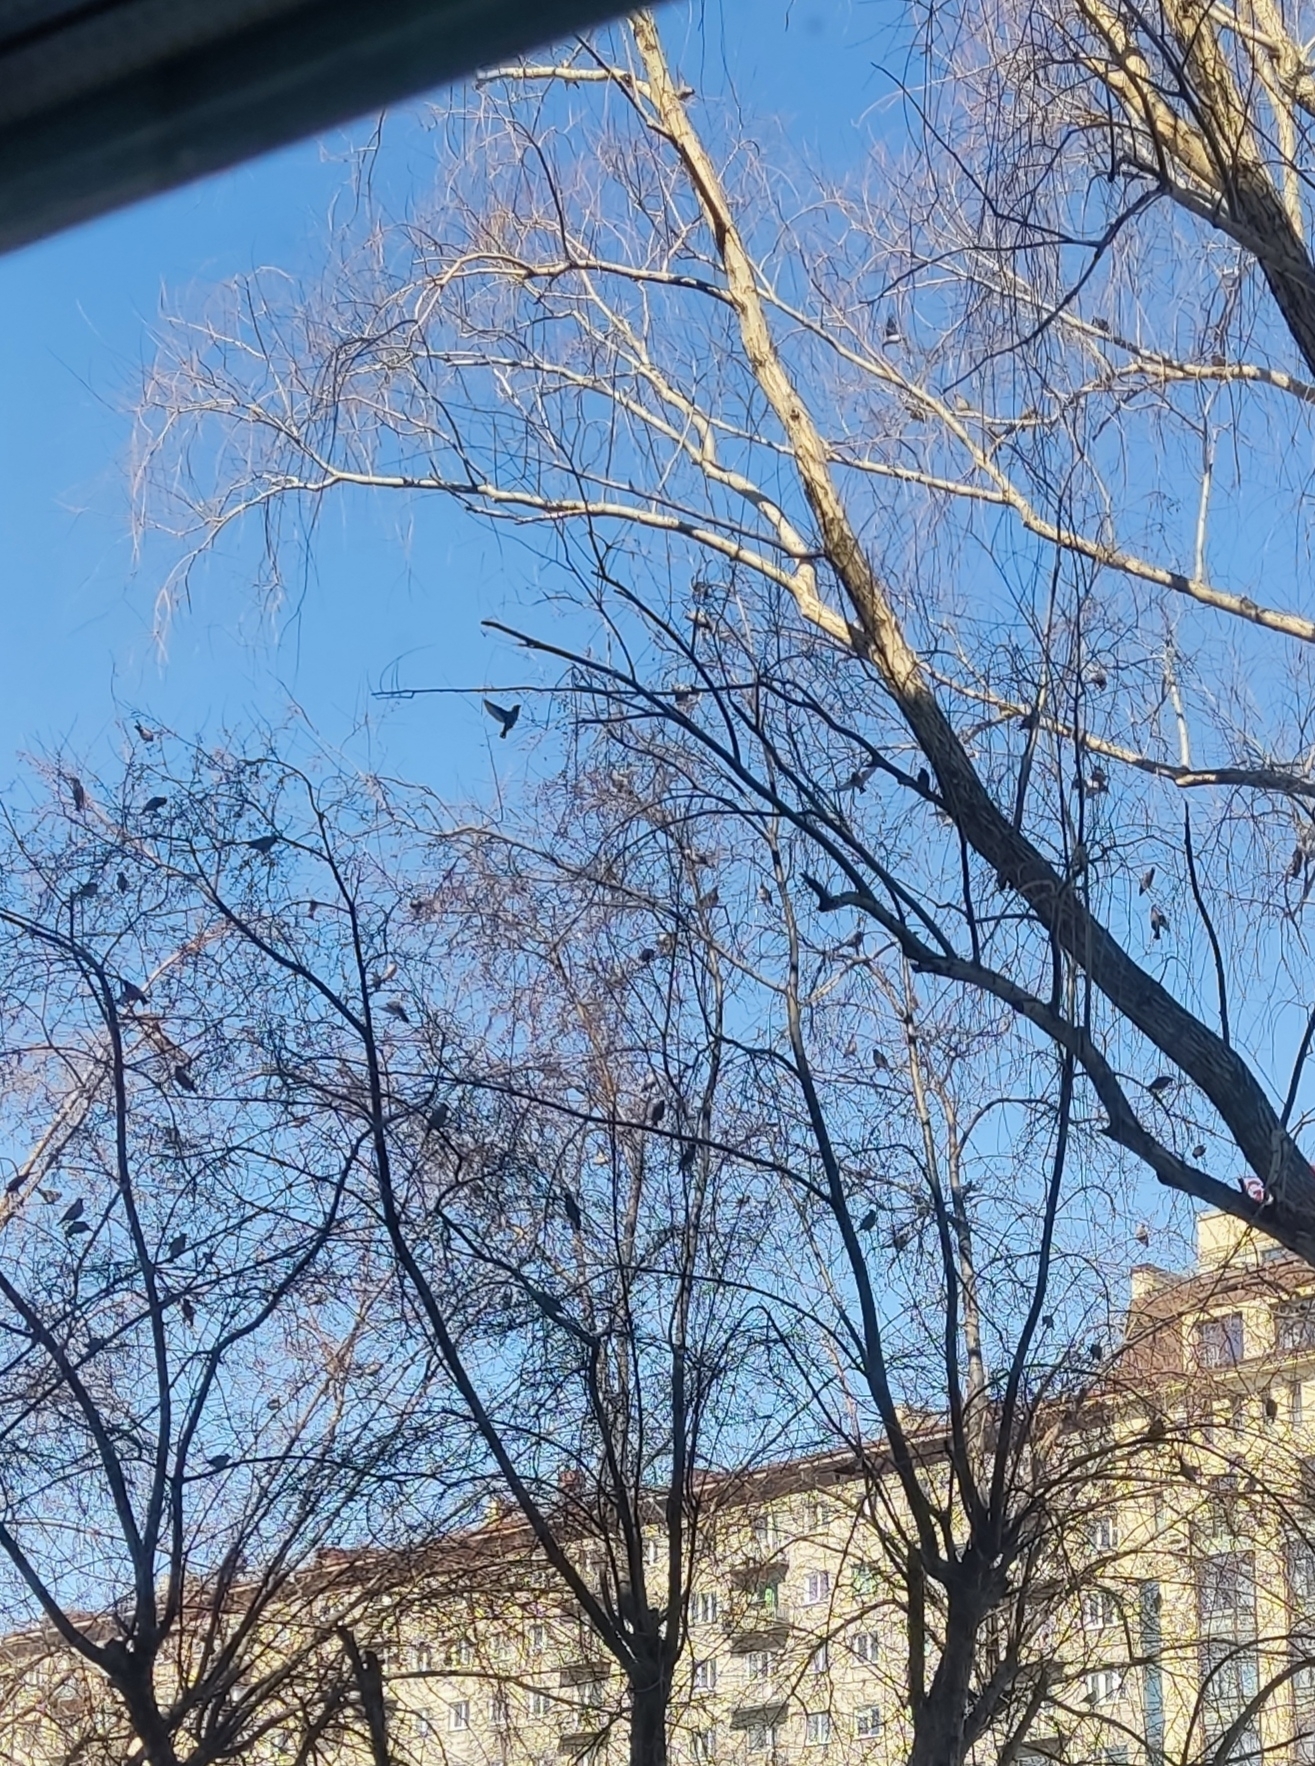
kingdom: Animalia
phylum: Chordata
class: Aves
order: Passeriformes
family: Bombycillidae
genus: Bombycilla
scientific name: Bombycilla garrulus
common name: Bohemian waxwing
